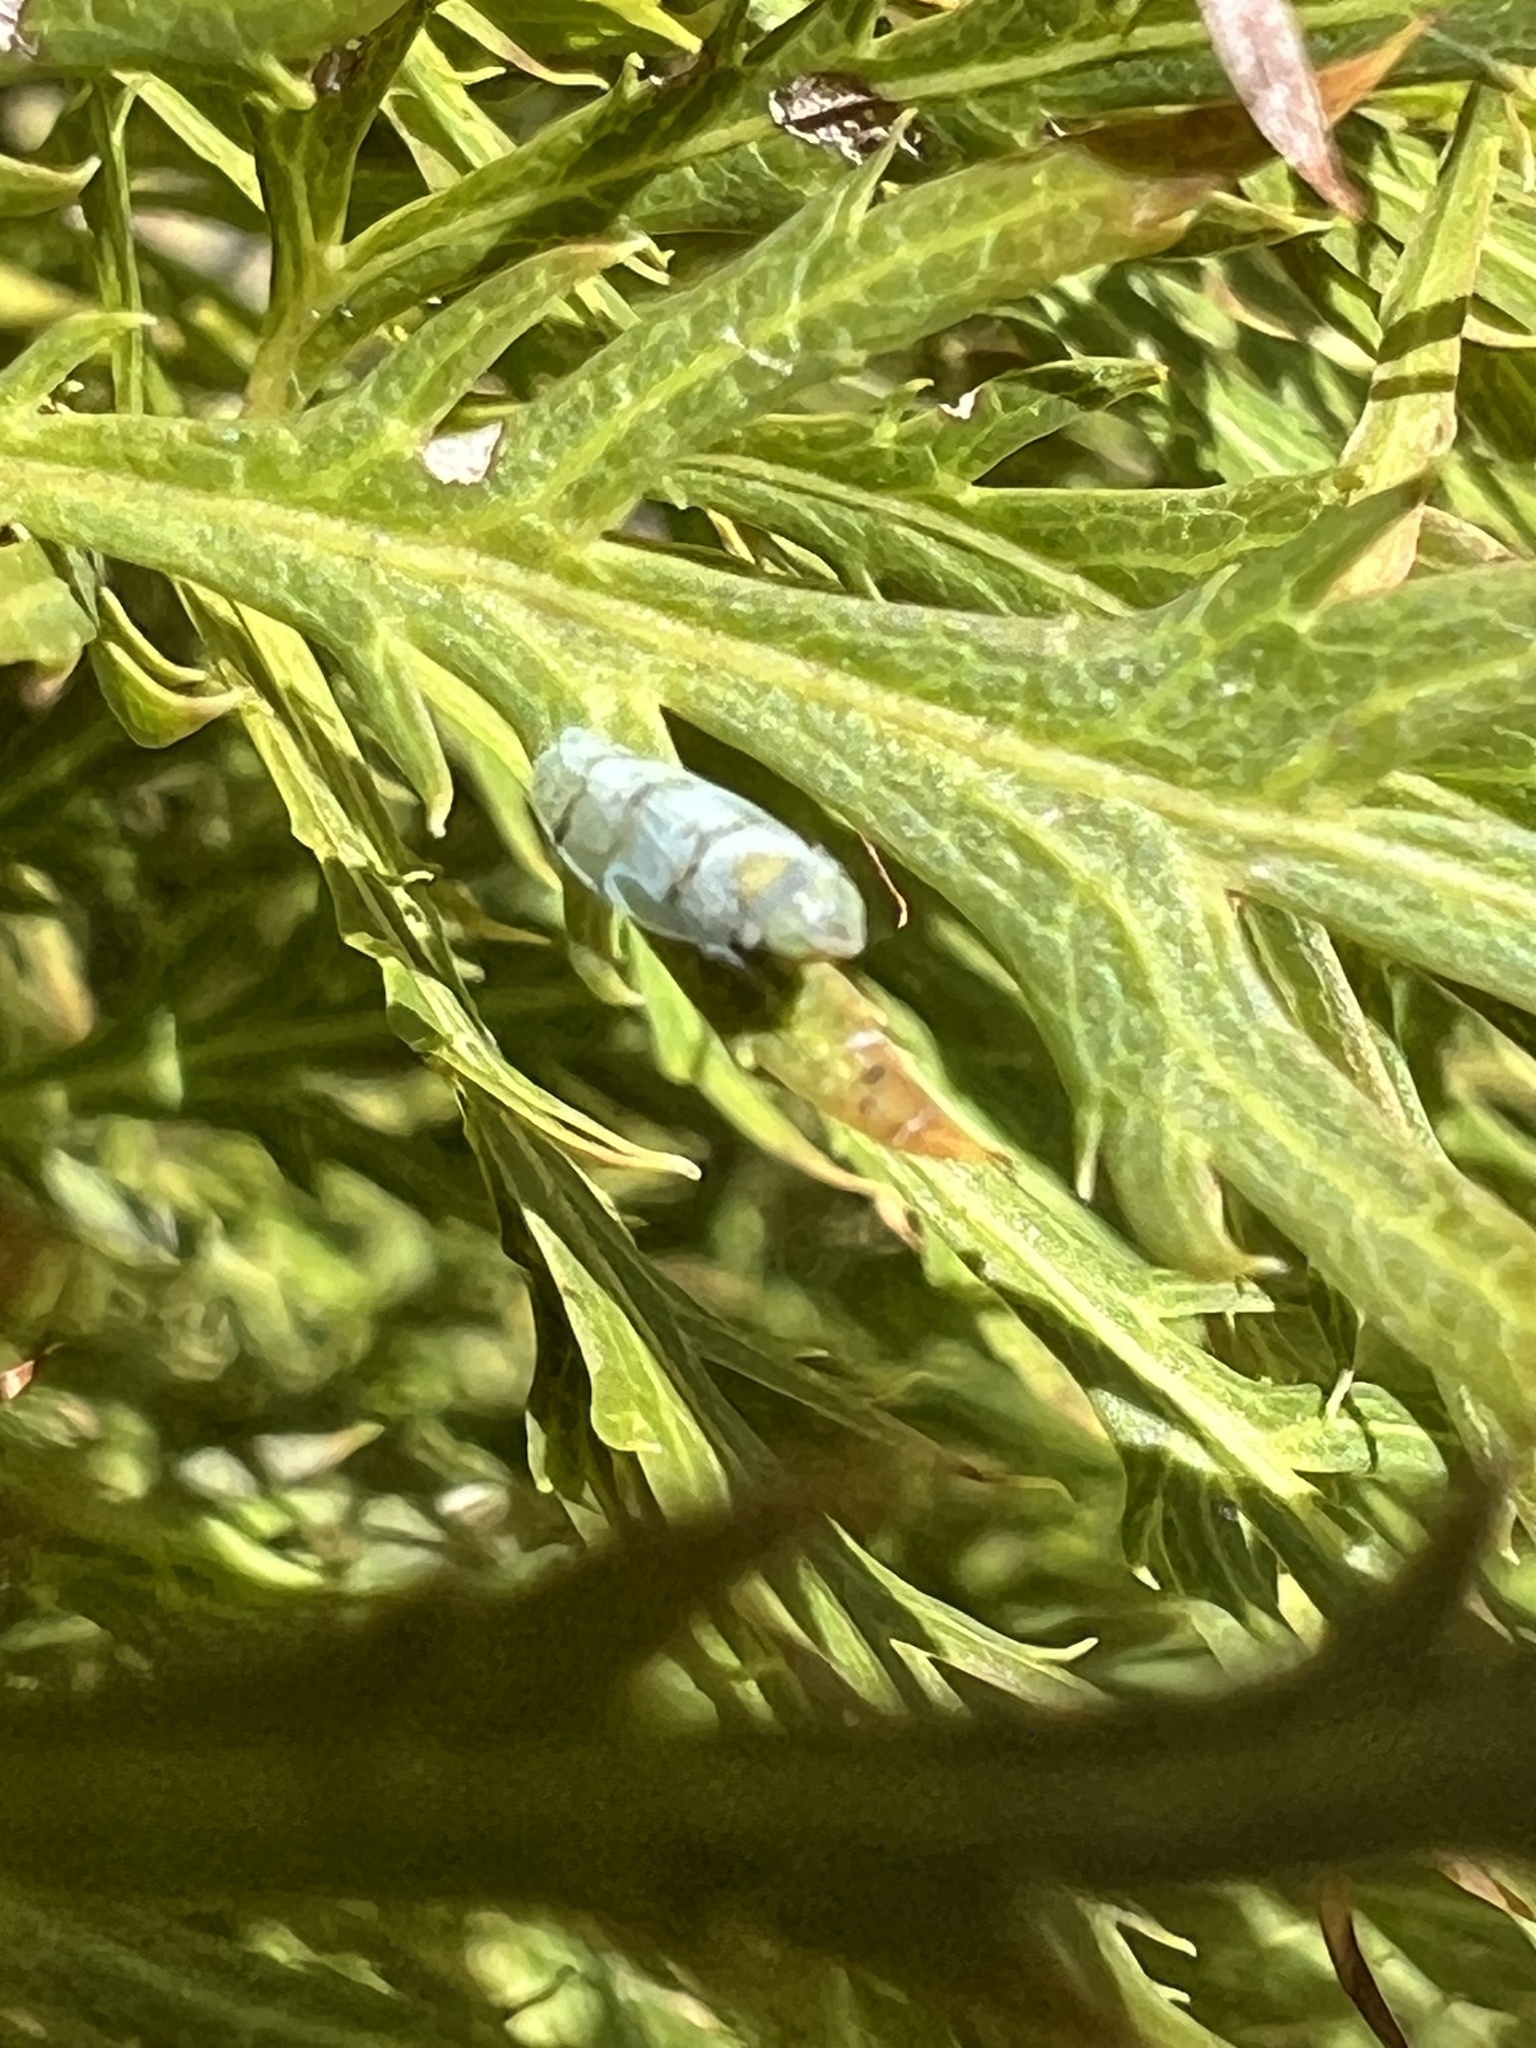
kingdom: Animalia
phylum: Arthropoda
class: Insecta
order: Hemiptera
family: Cicadellidae
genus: Japananus
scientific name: Japananus hyalinus
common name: The japanese maple leafhopper
